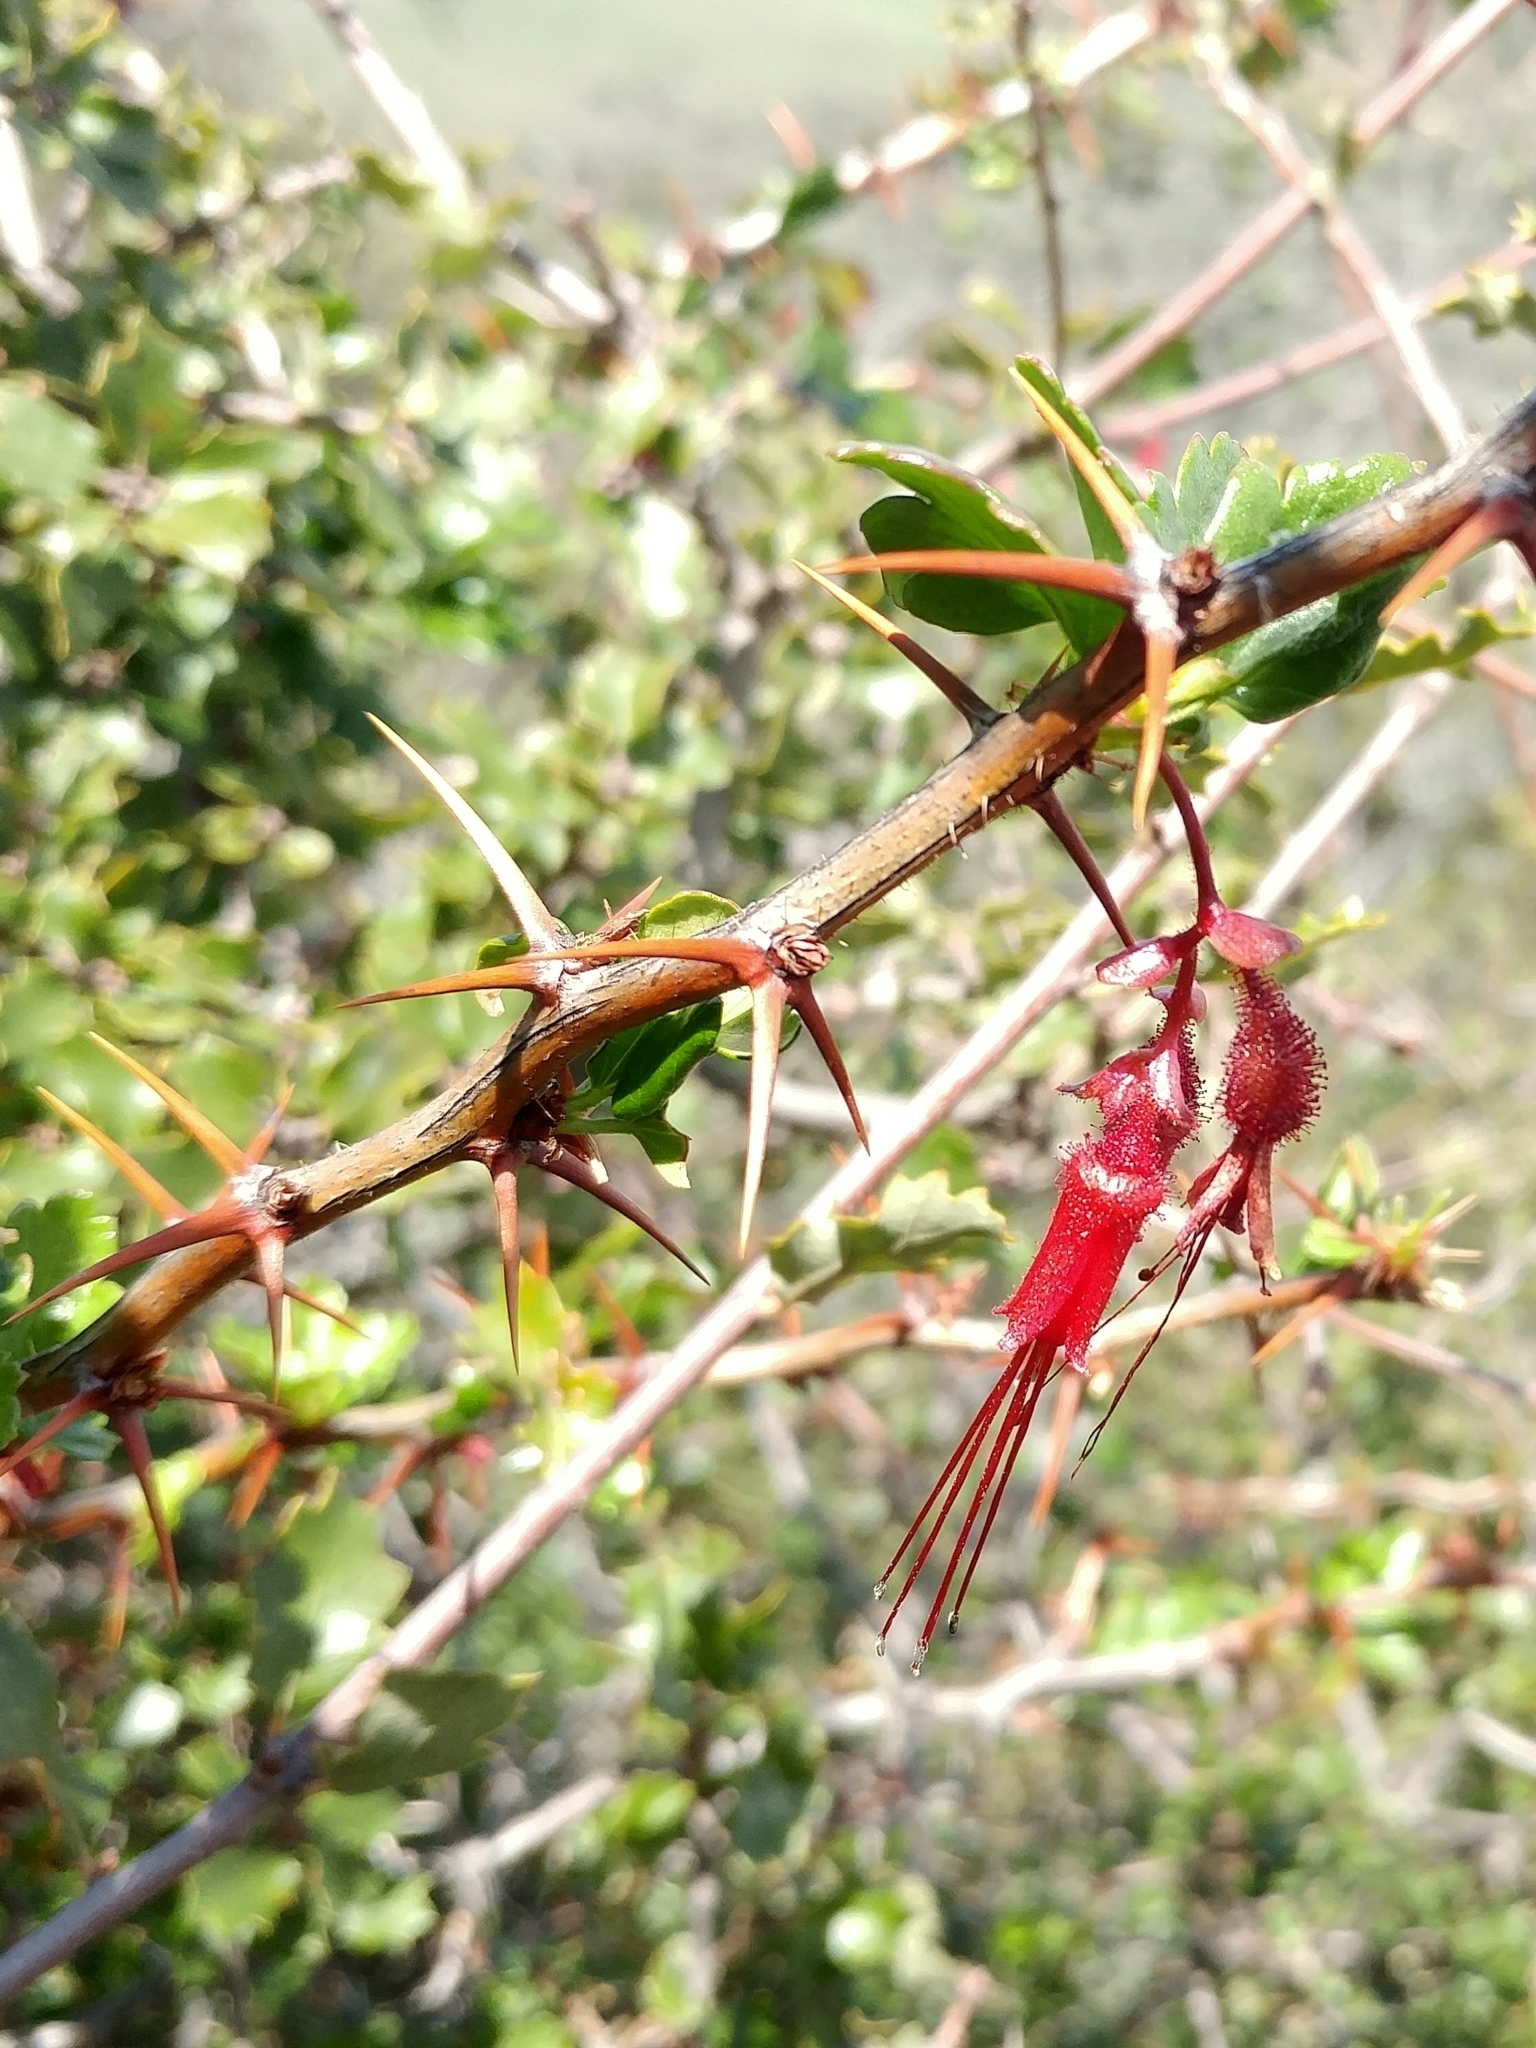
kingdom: Plantae
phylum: Tracheophyta
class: Magnoliopsida
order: Saxifragales
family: Grossulariaceae
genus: Ribes
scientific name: Ribes speciosum
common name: Fuchsia-flower gooseberry
